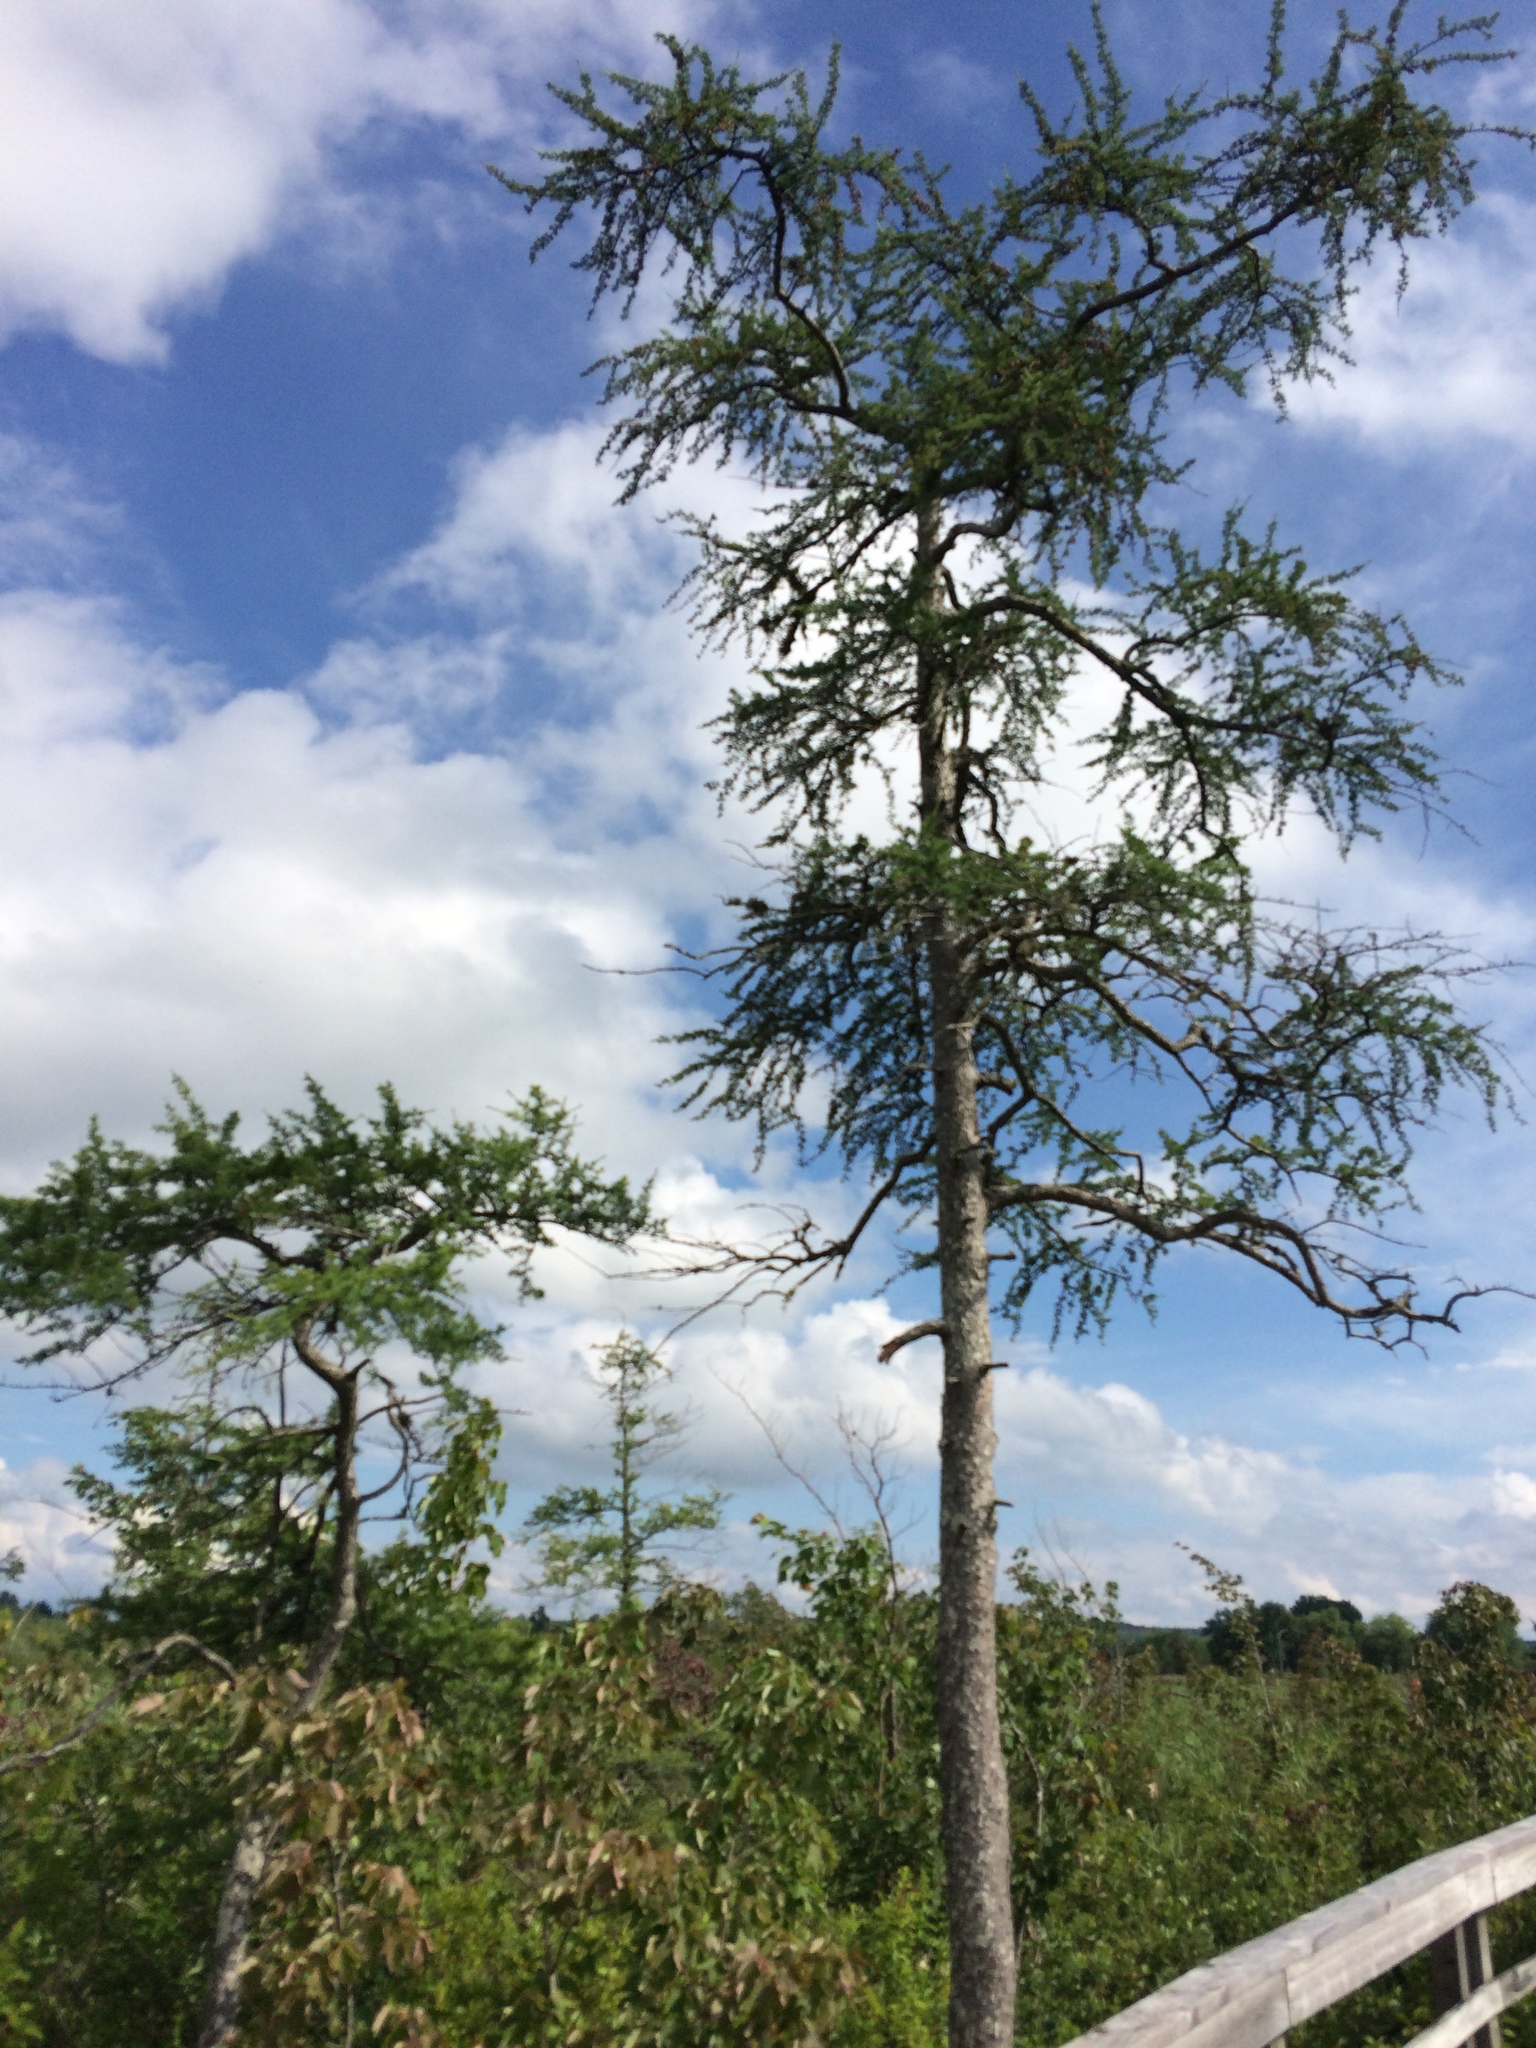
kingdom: Plantae
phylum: Tracheophyta
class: Pinopsida
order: Pinales
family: Pinaceae
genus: Larix
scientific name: Larix laricina
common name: American larch
